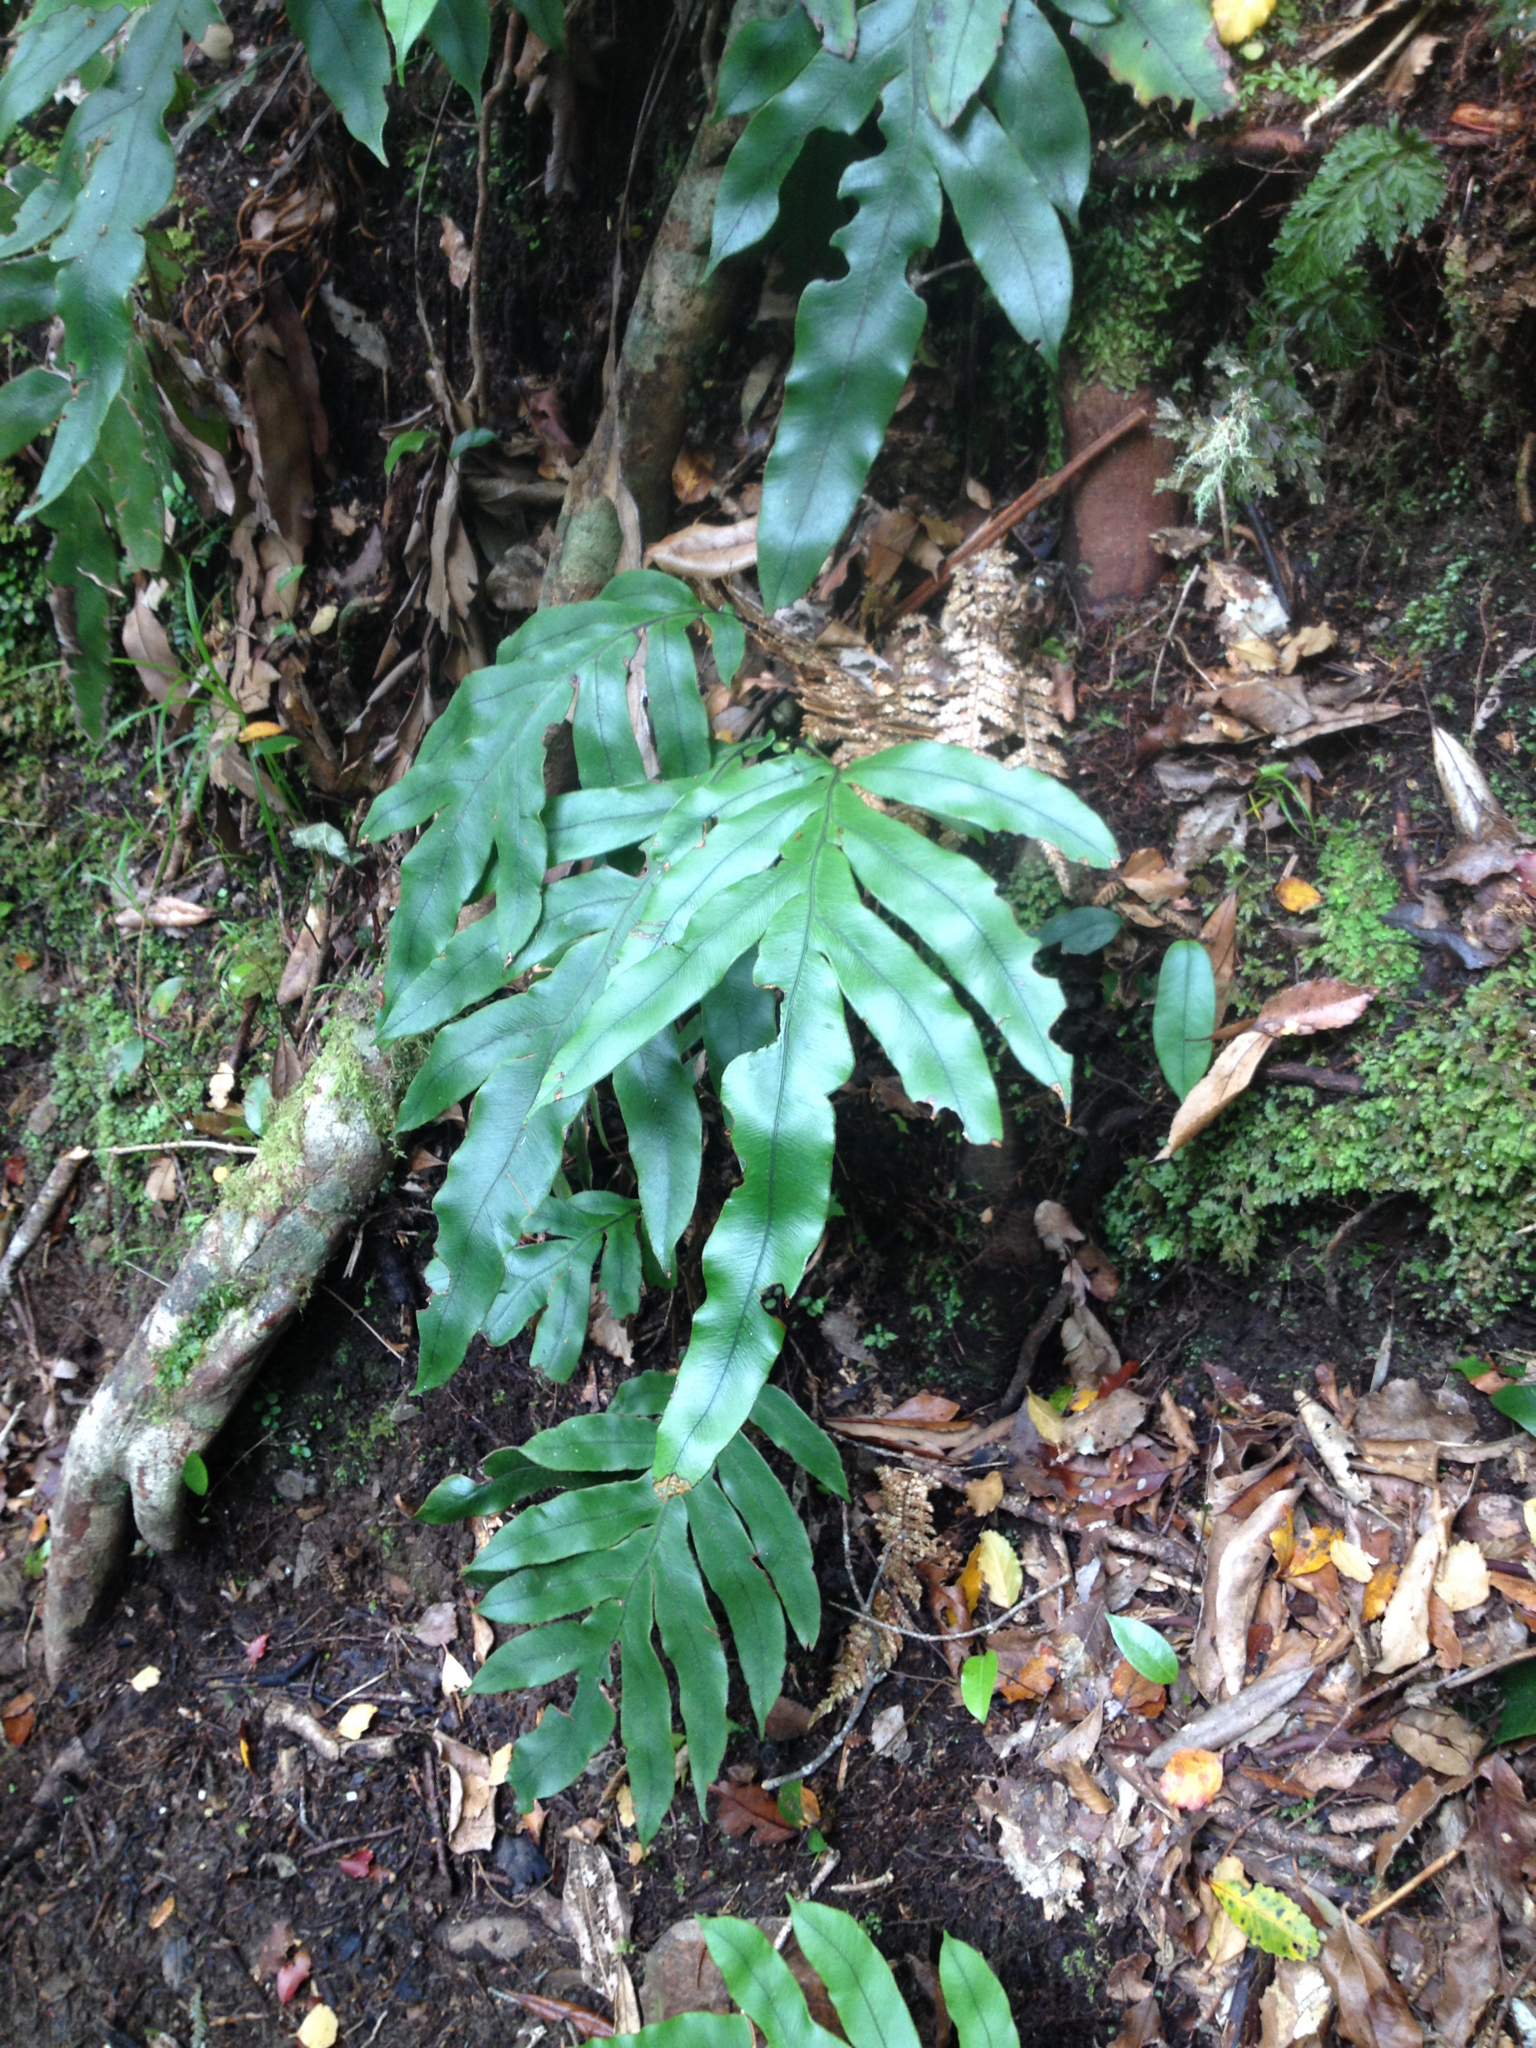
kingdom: Plantae
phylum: Tracheophyta
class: Polypodiopsida
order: Polypodiales
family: Blechnaceae
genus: Austroblechnum
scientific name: Austroblechnum colensoi
